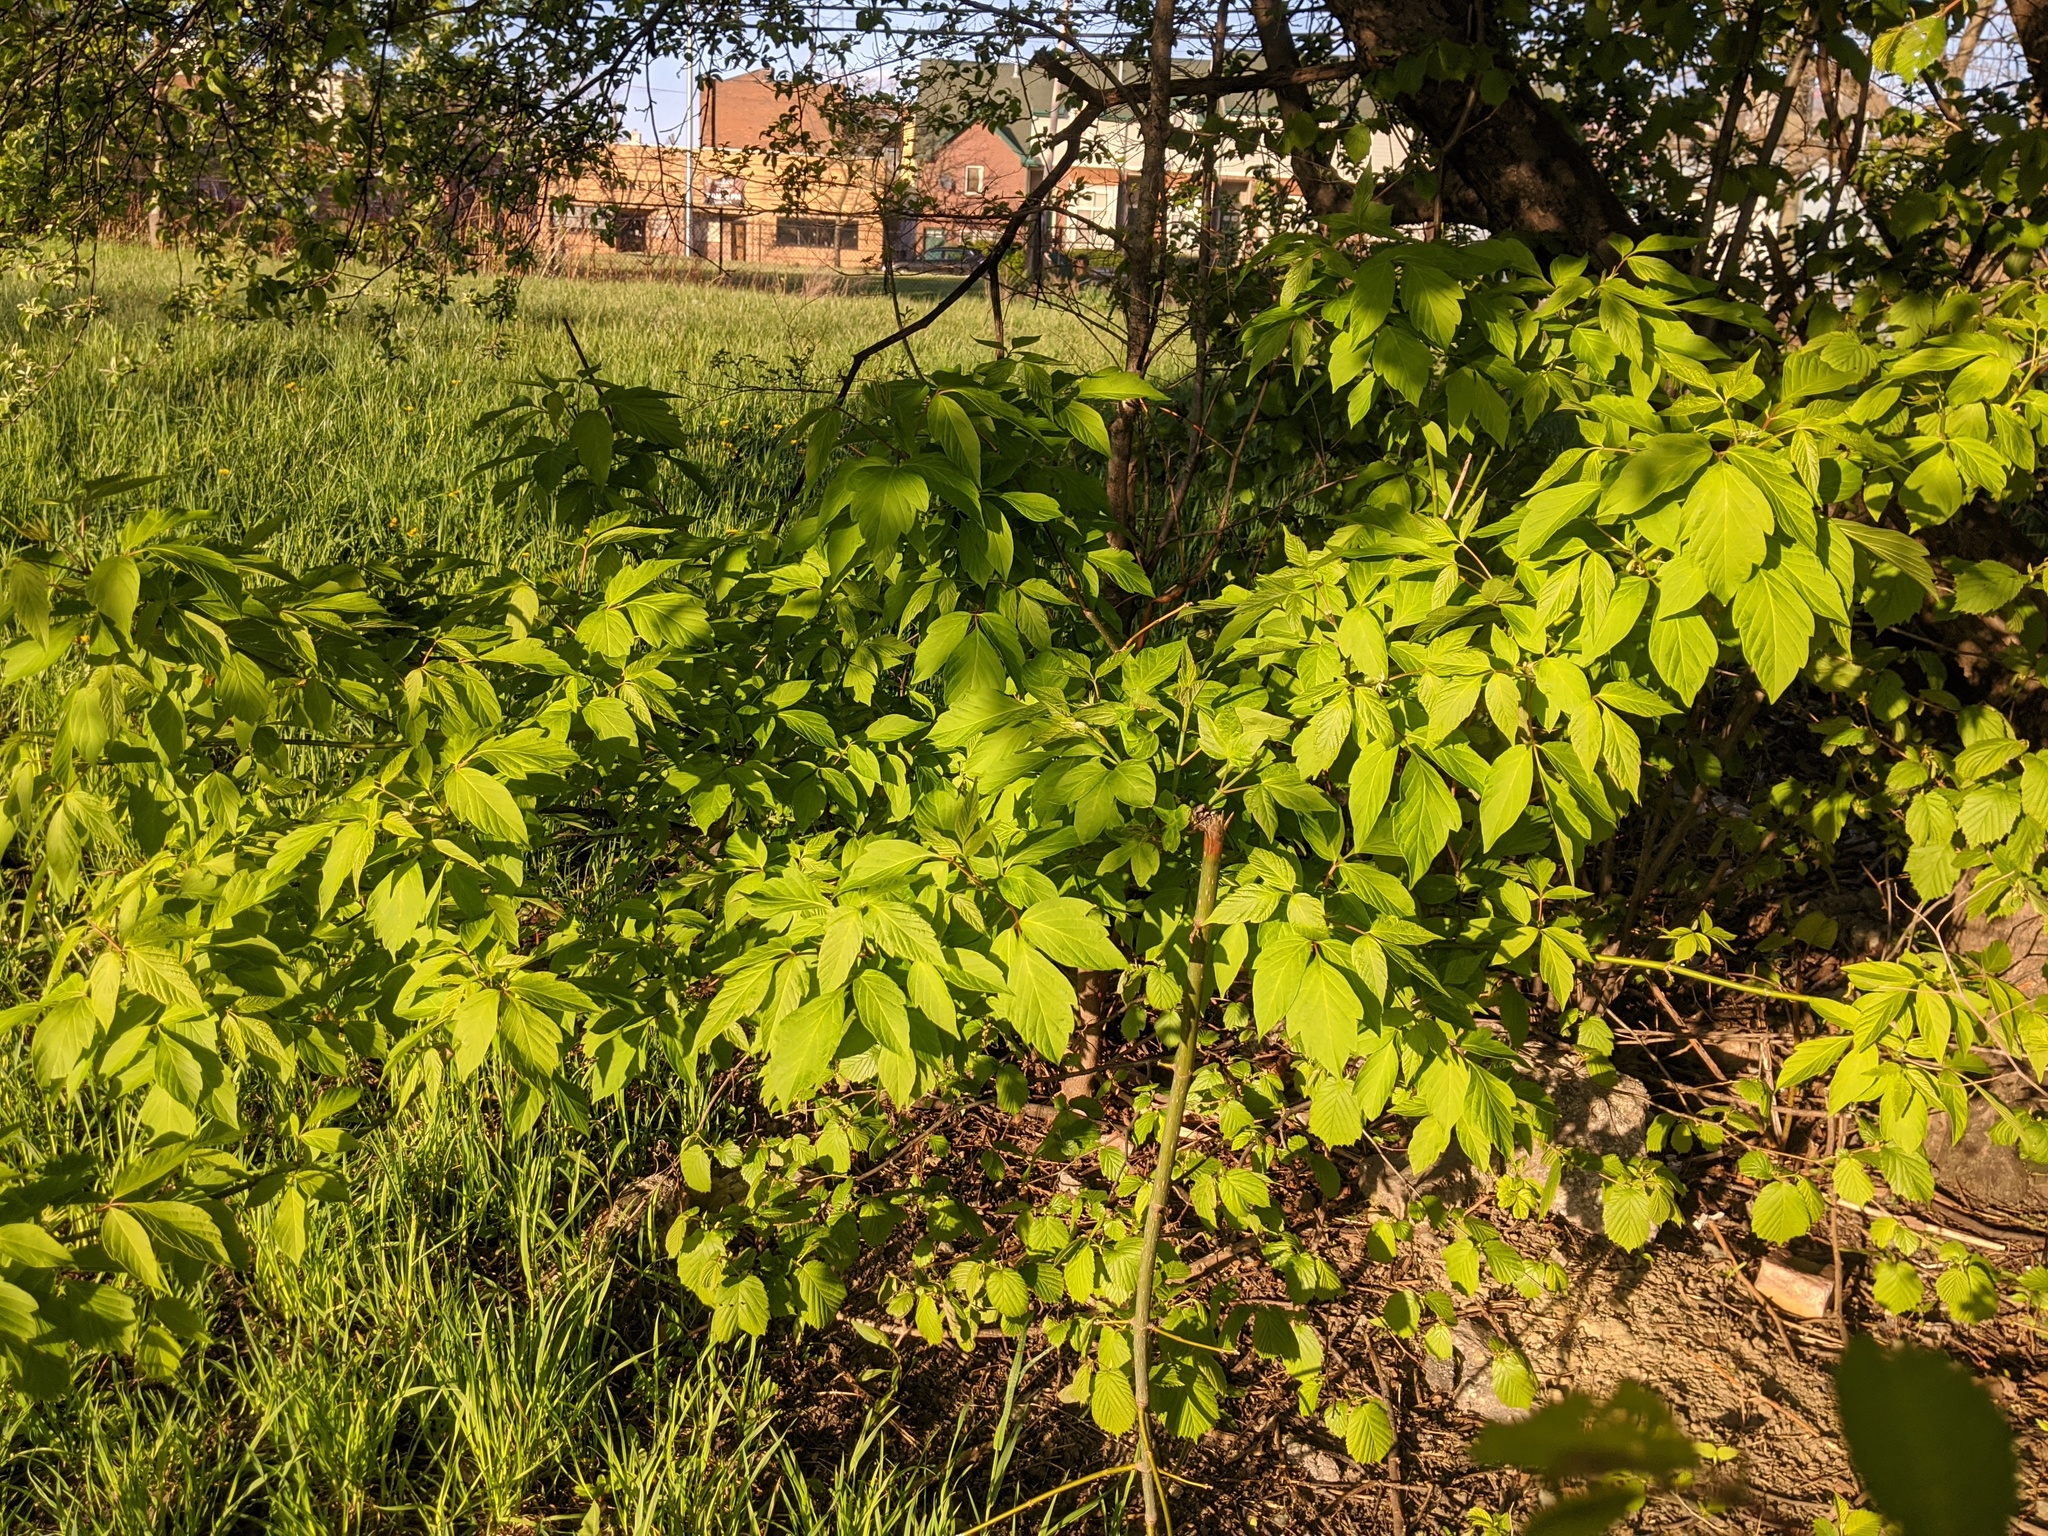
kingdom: Plantae
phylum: Tracheophyta
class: Magnoliopsida
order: Sapindales
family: Sapindaceae
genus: Acer
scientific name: Acer negundo
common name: Ashleaf maple
